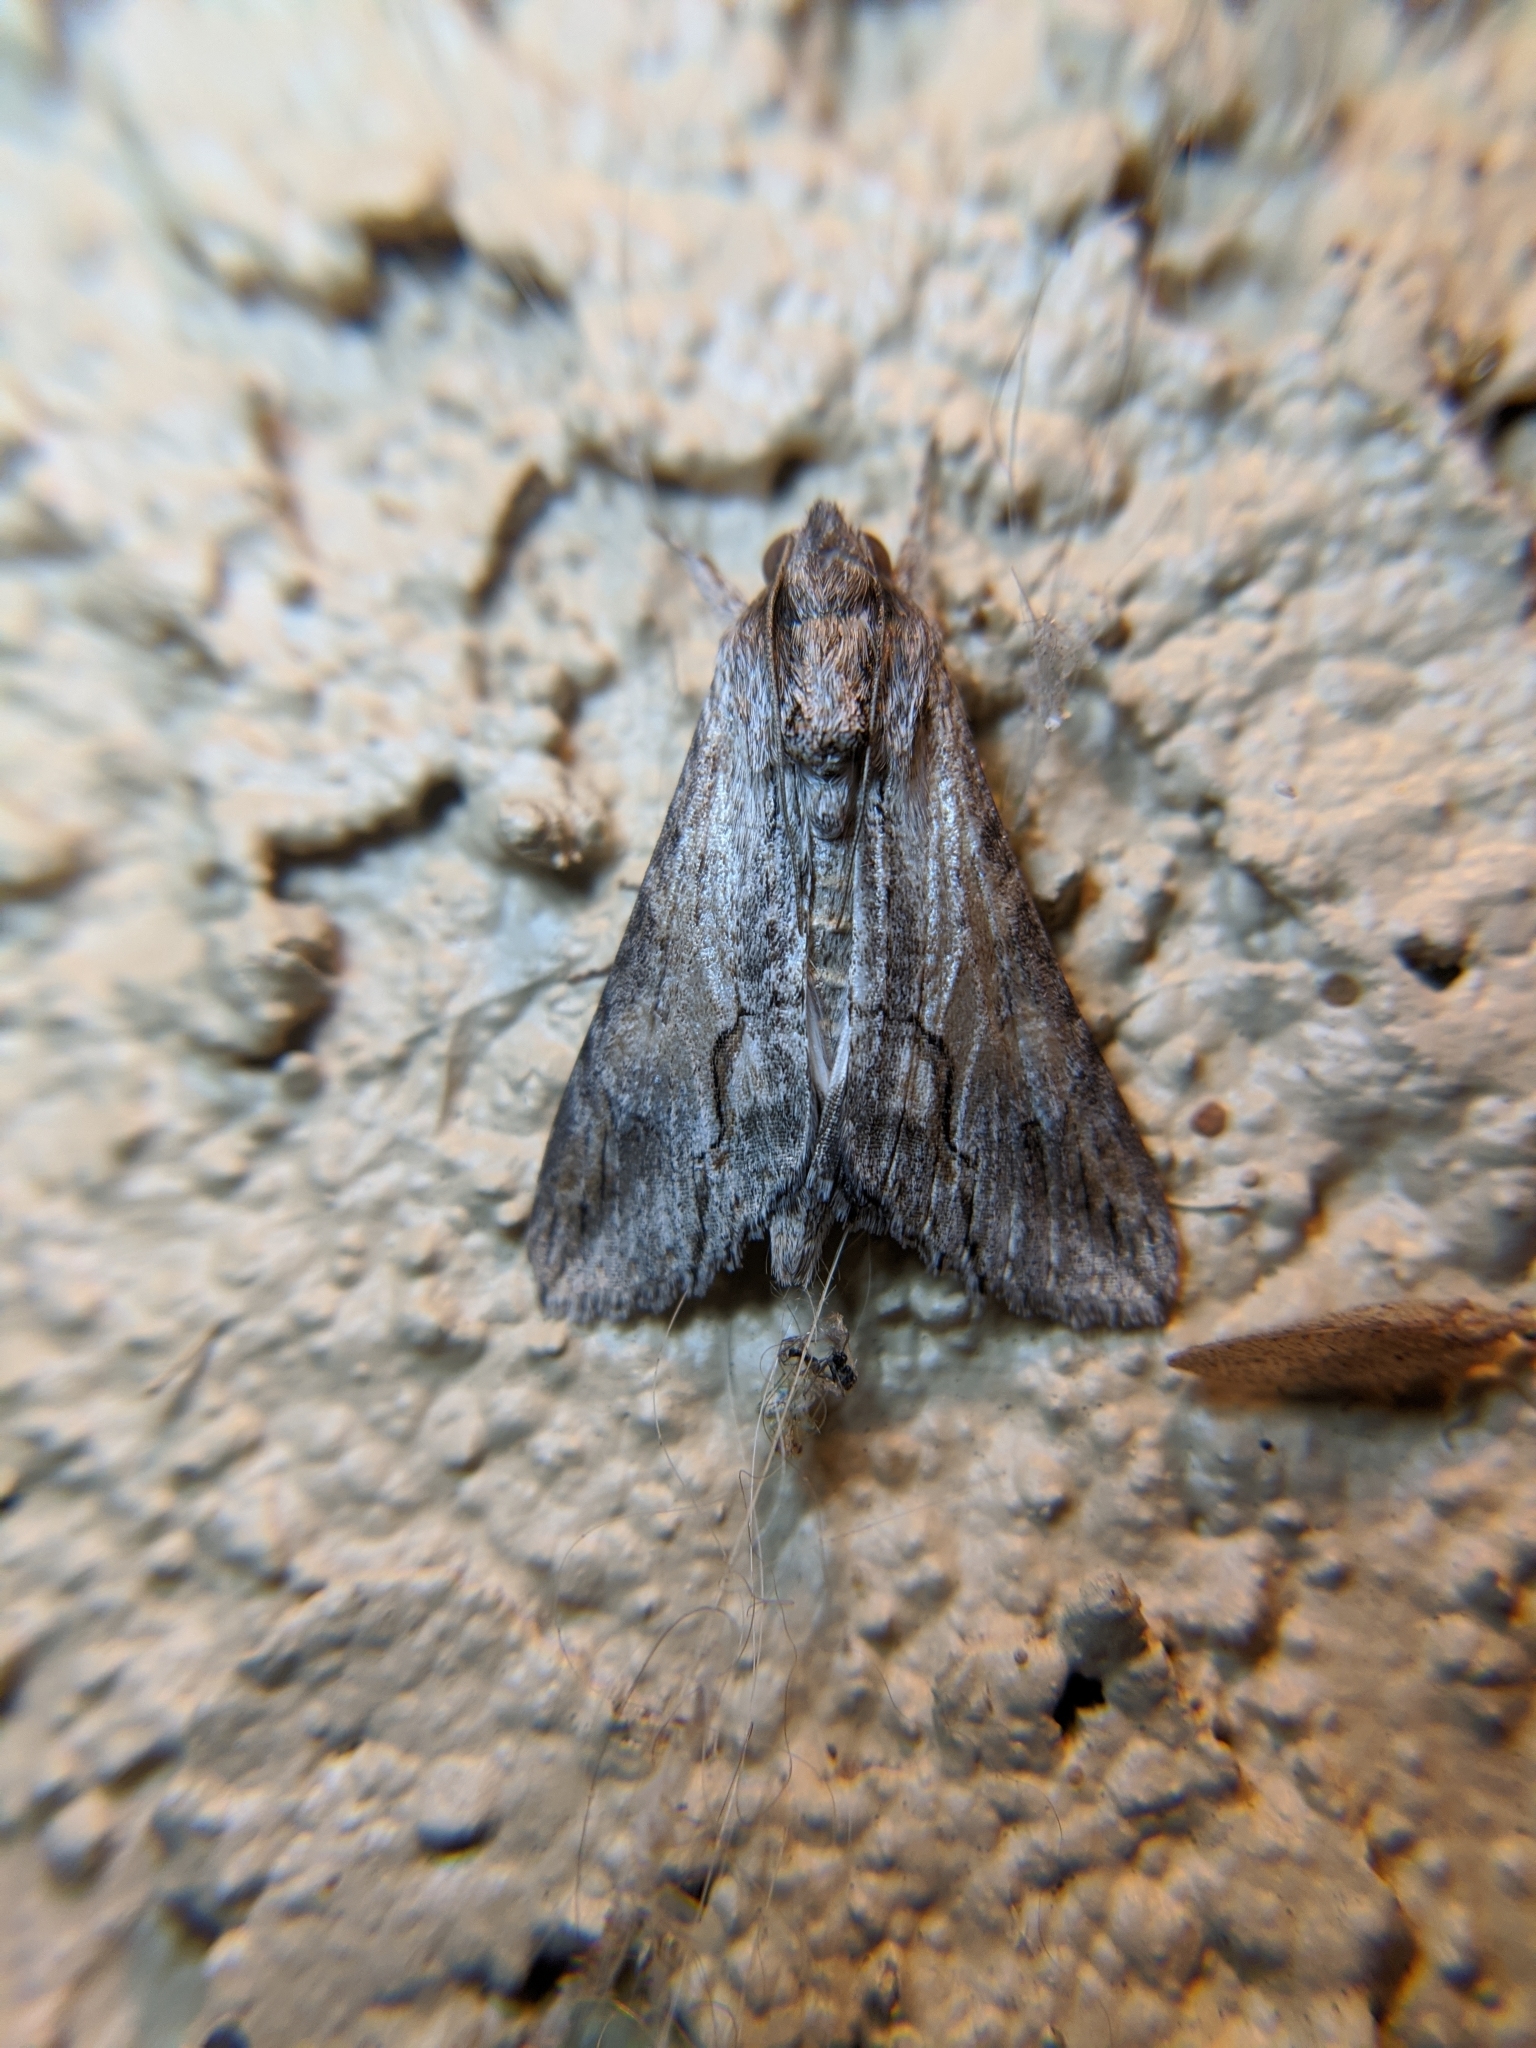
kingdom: Animalia
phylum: Arthropoda
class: Insecta
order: Lepidoptera
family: Erebidae
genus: Melipotis
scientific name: Melipotis acontioides
